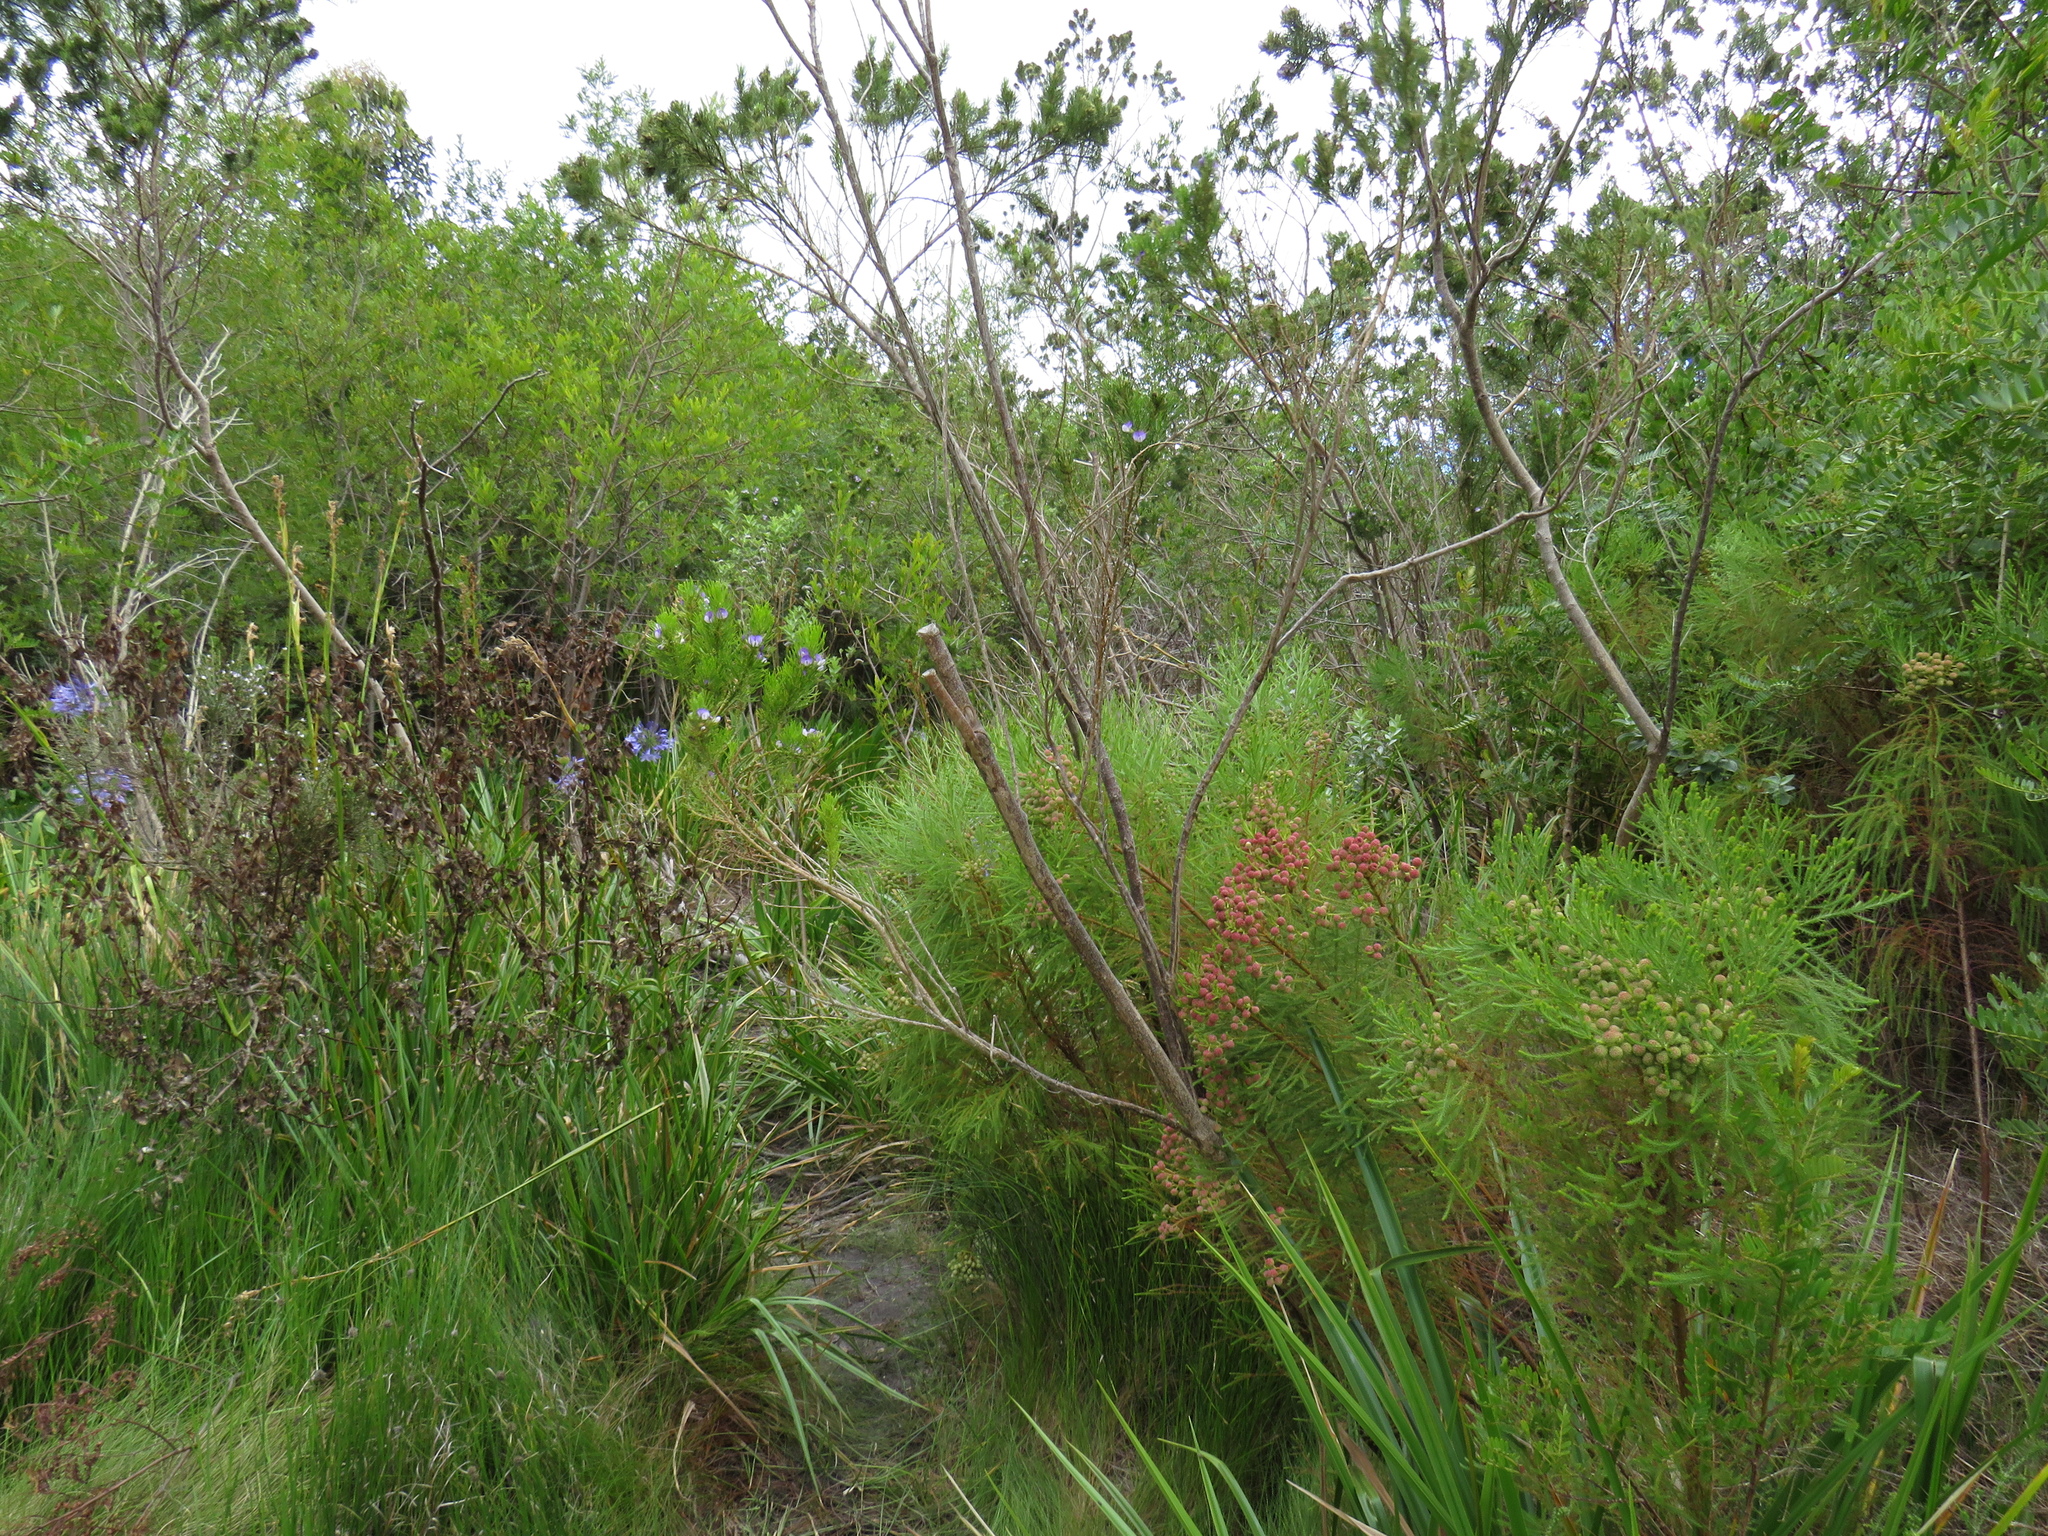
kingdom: Plantae
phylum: Tracheophyta
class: Magnoliopsida
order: Fabales
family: Fabaceae
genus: Psoralea
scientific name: Psoralea pinnata
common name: African scurfpea
